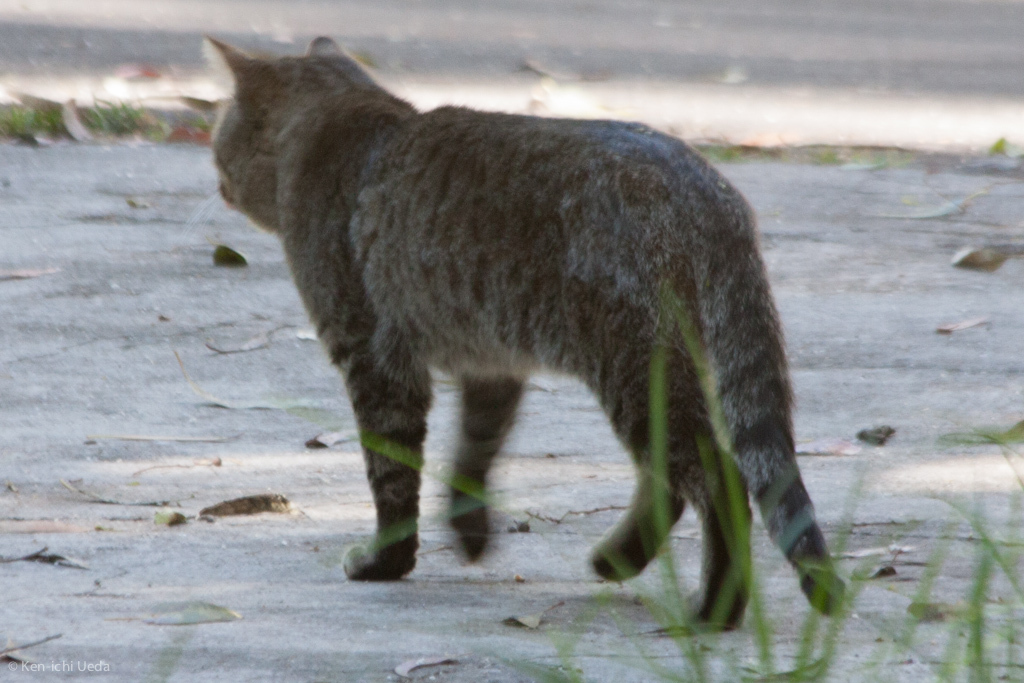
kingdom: Animalia
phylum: Chordata
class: Mammalia
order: Carnivora
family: Felidae
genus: Felis
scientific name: Felis catus
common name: Domestic cat
